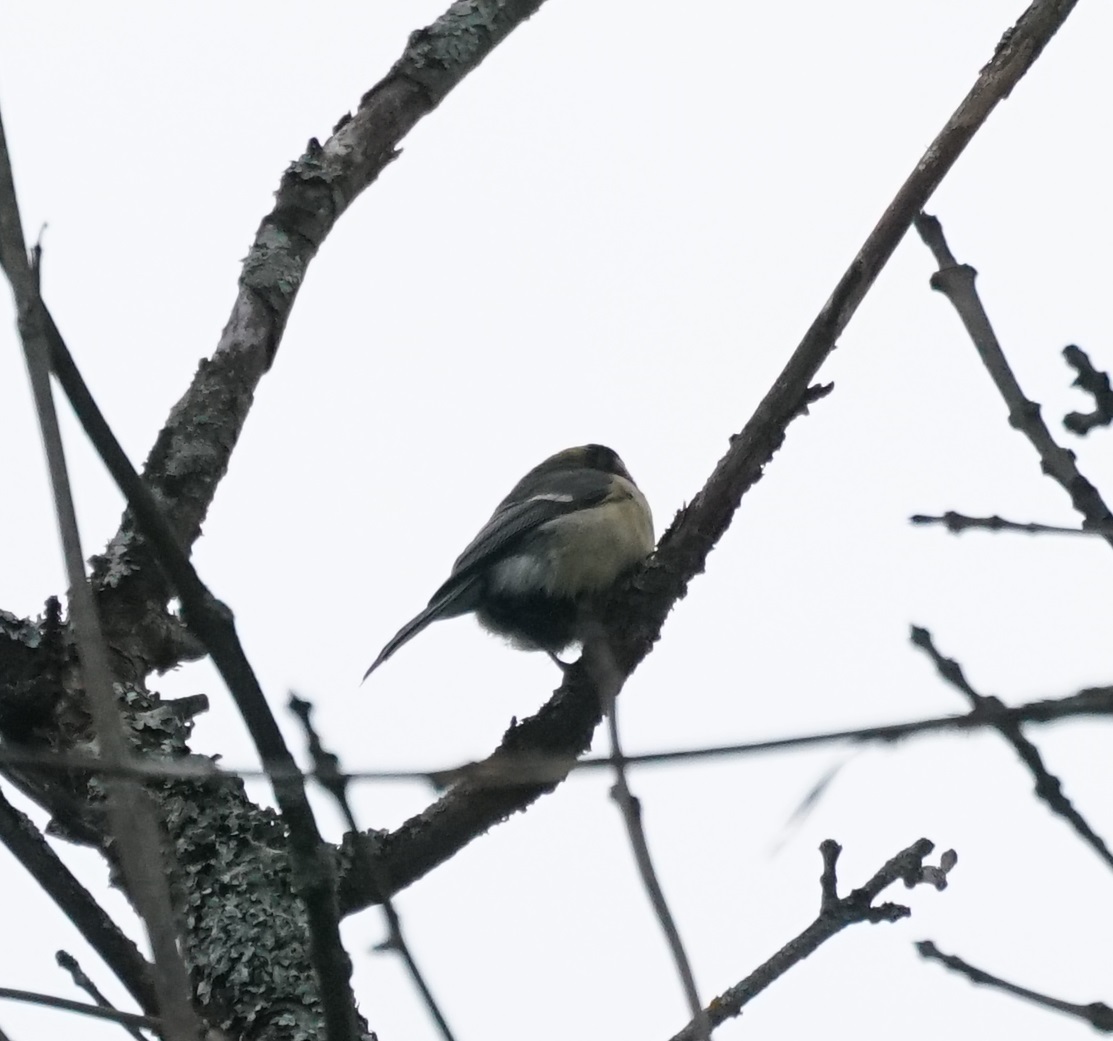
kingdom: Animalia
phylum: Chordata
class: Aves
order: Passeriformes
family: Paridae
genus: Parus
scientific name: Parus major
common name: Great tit
